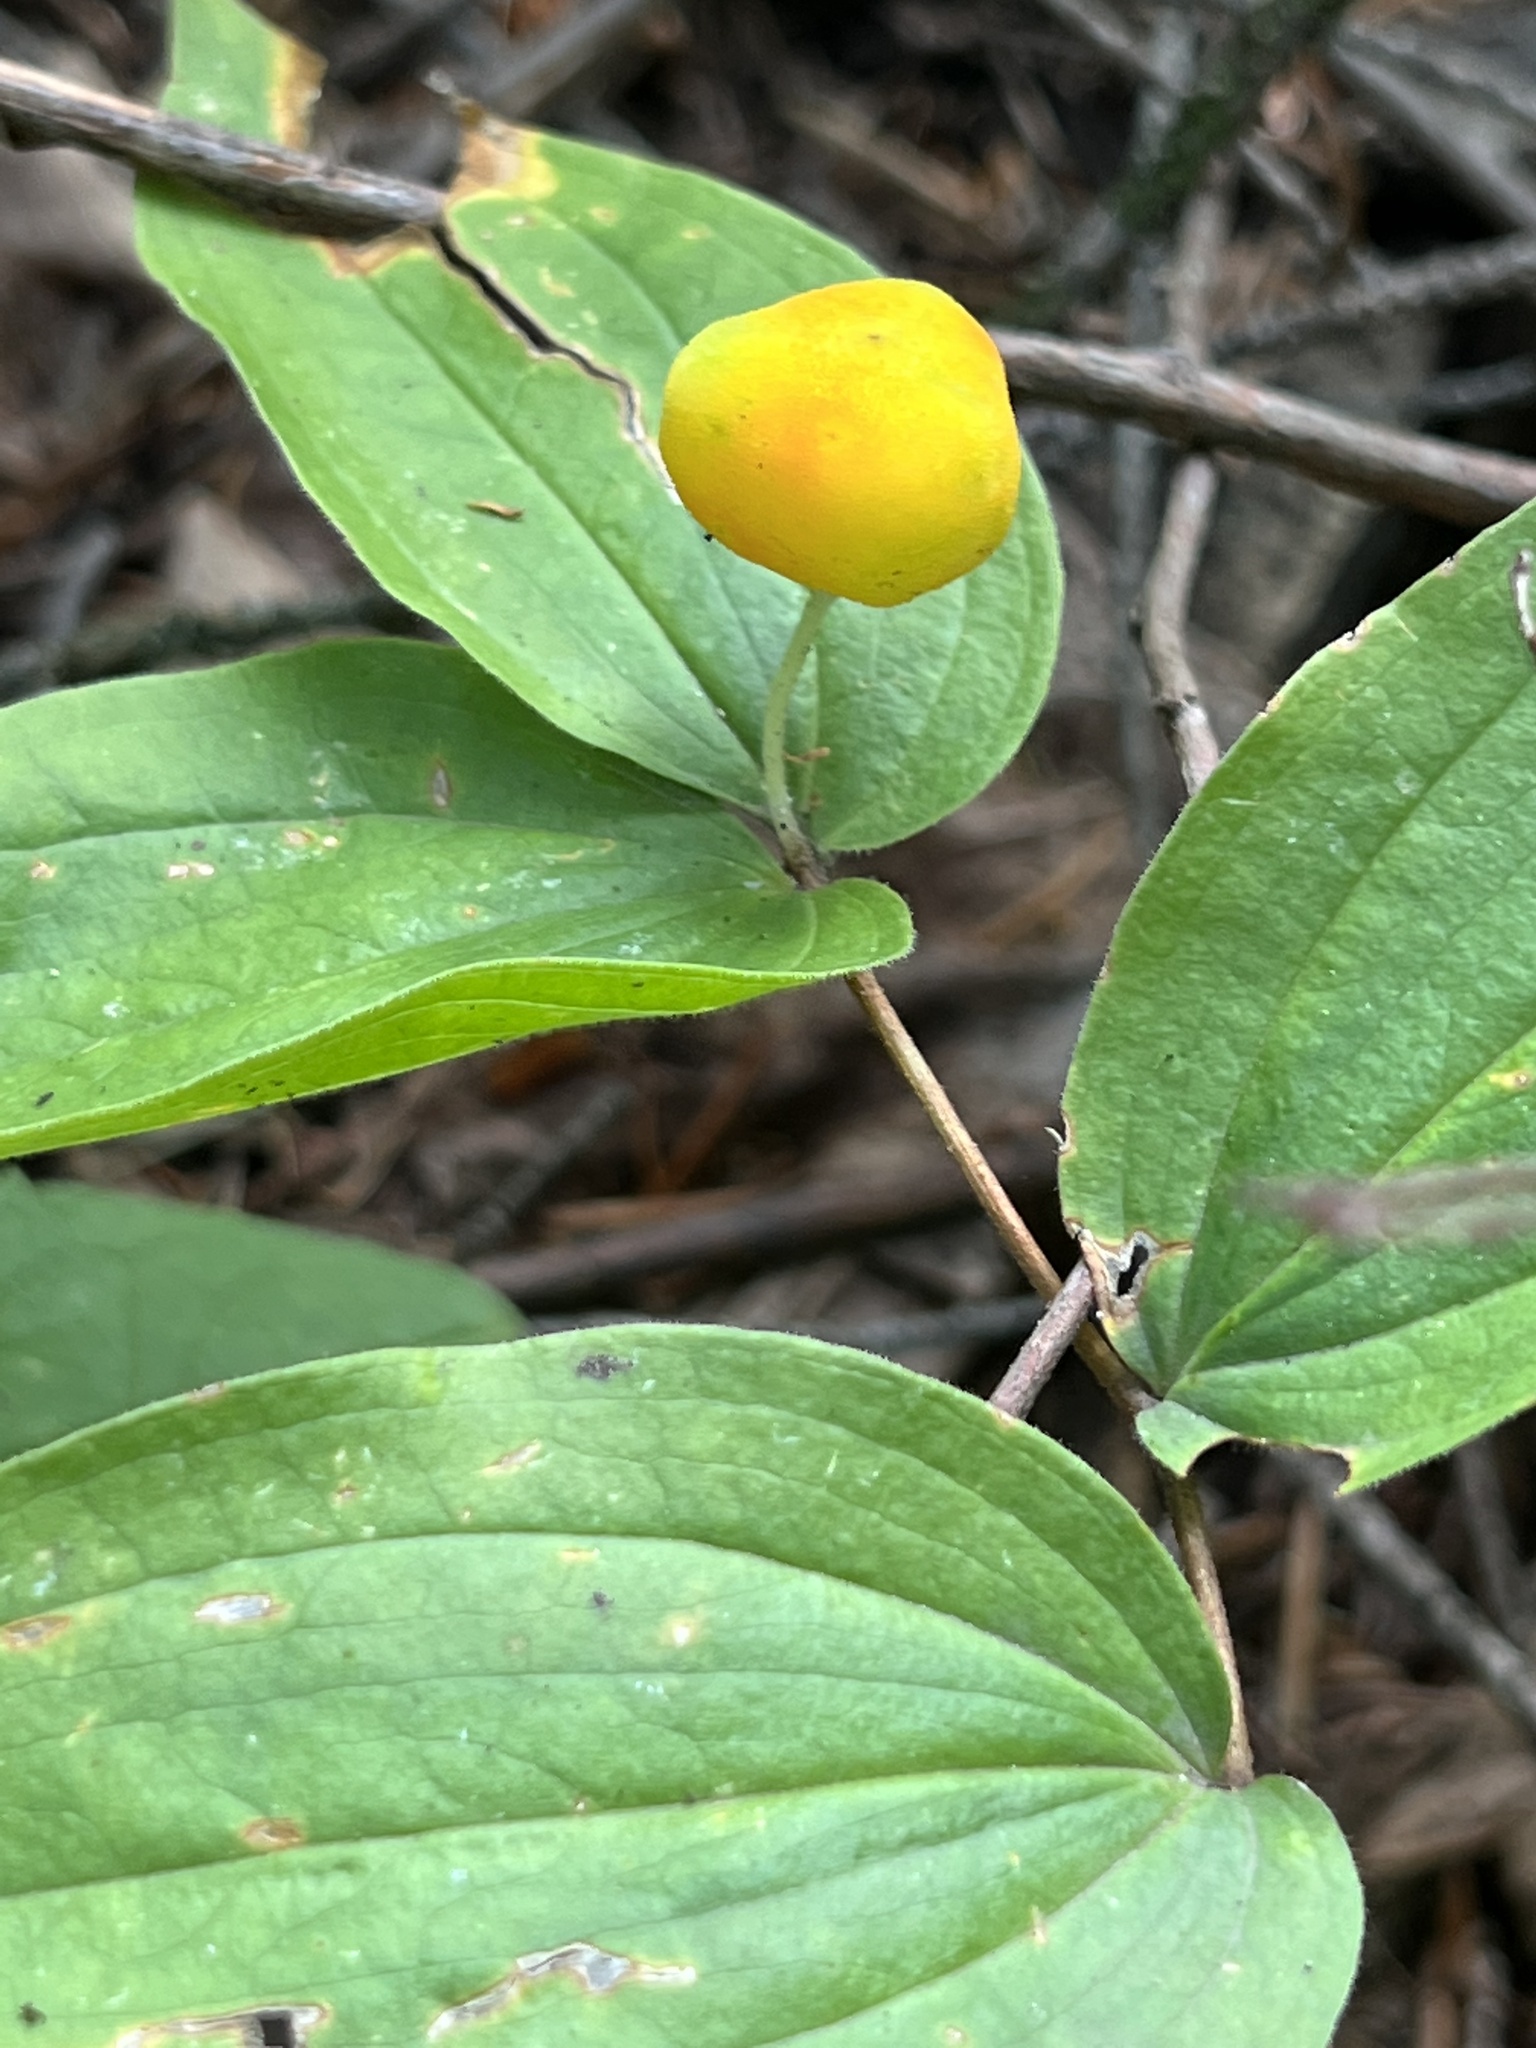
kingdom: Plantae
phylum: Tracheophyta
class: Liliopsida
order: Liliales
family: Liliaceae
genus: Prosartes
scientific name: Prosartes trachycarpa
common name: Rough-fruit fairy-bells
